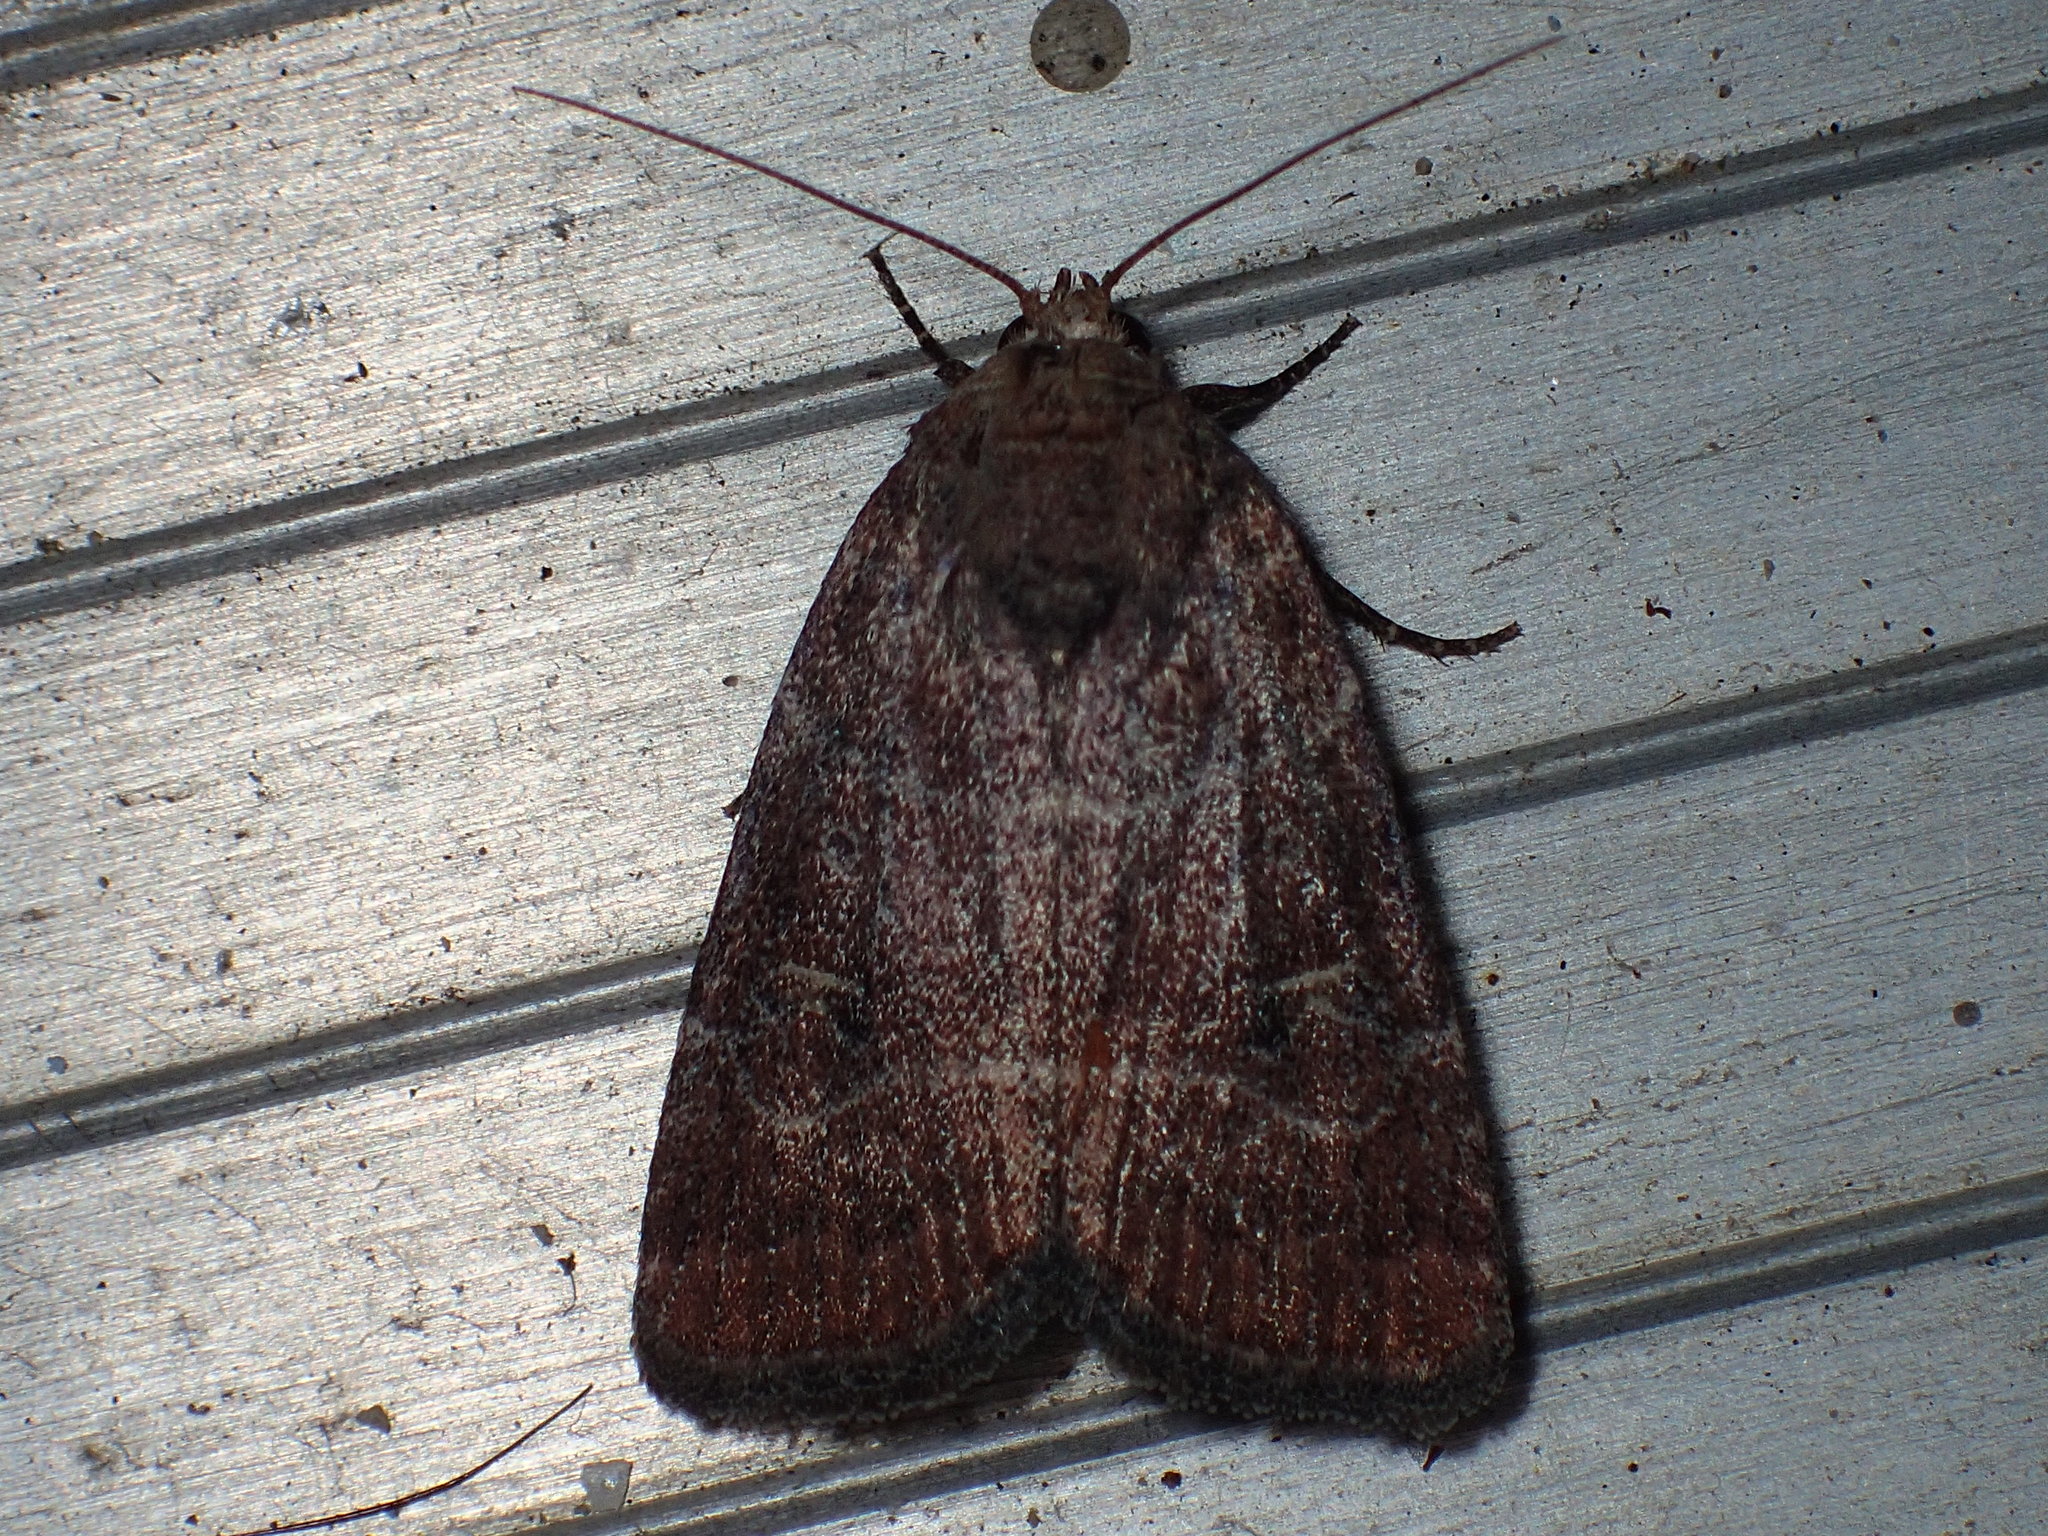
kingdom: Animalia
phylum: Arthropoda
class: Insecta
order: Lepidoptera
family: Noctuidae
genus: Elaphria
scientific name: Elaphria grata
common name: Grateful midget moth
